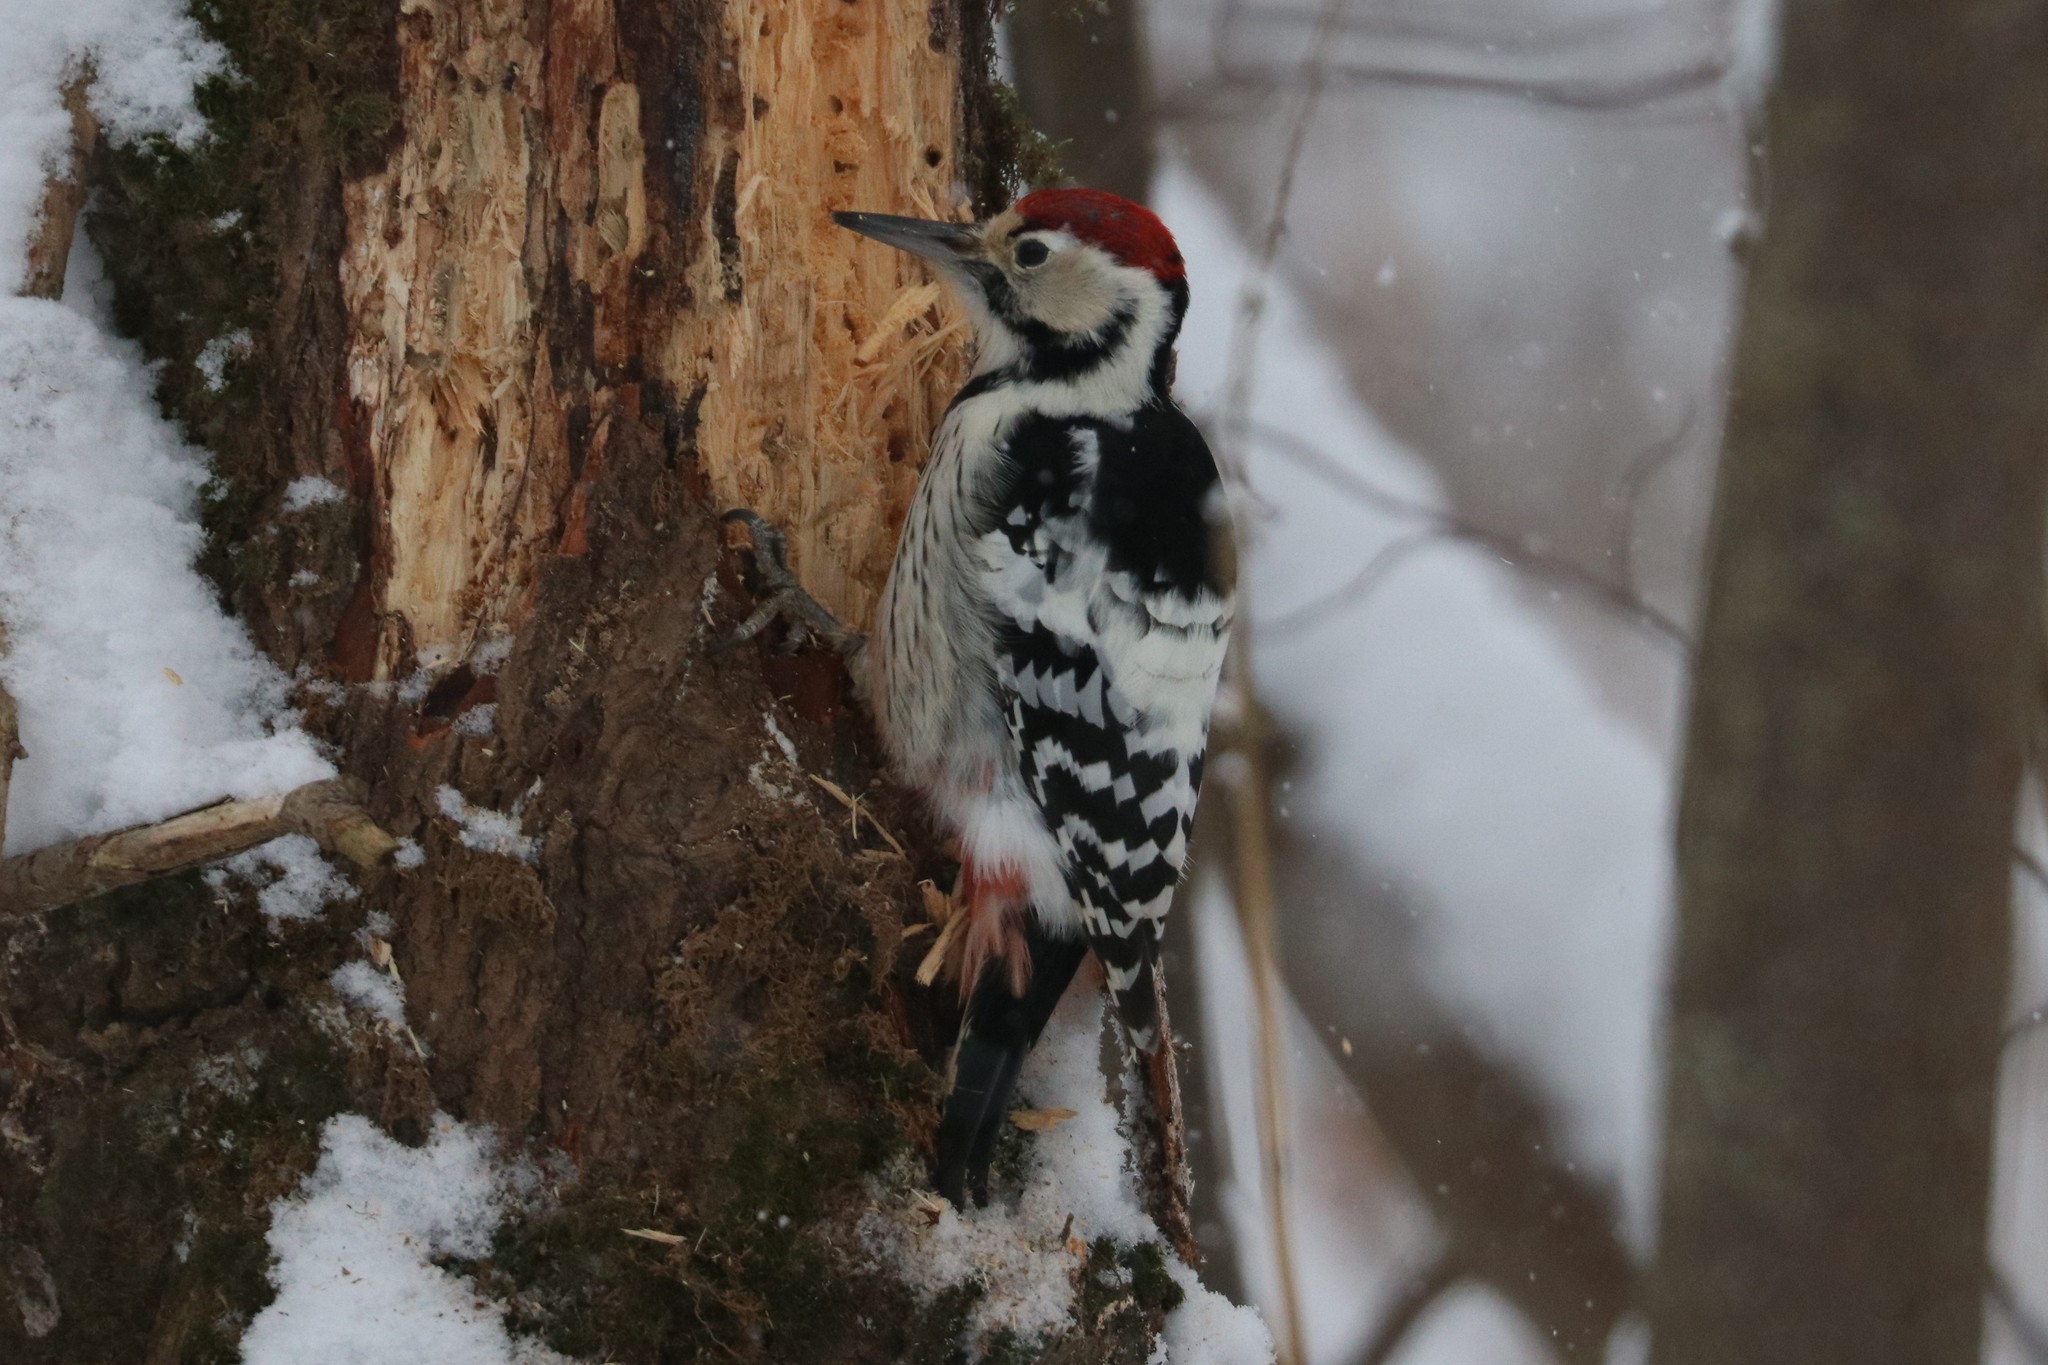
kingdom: Animalia
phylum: Chordata
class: Aves
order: Piciformes
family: Picidae
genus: Dendrocopos
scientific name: Dendrocopos leucotos
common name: White-backed woodpecker
